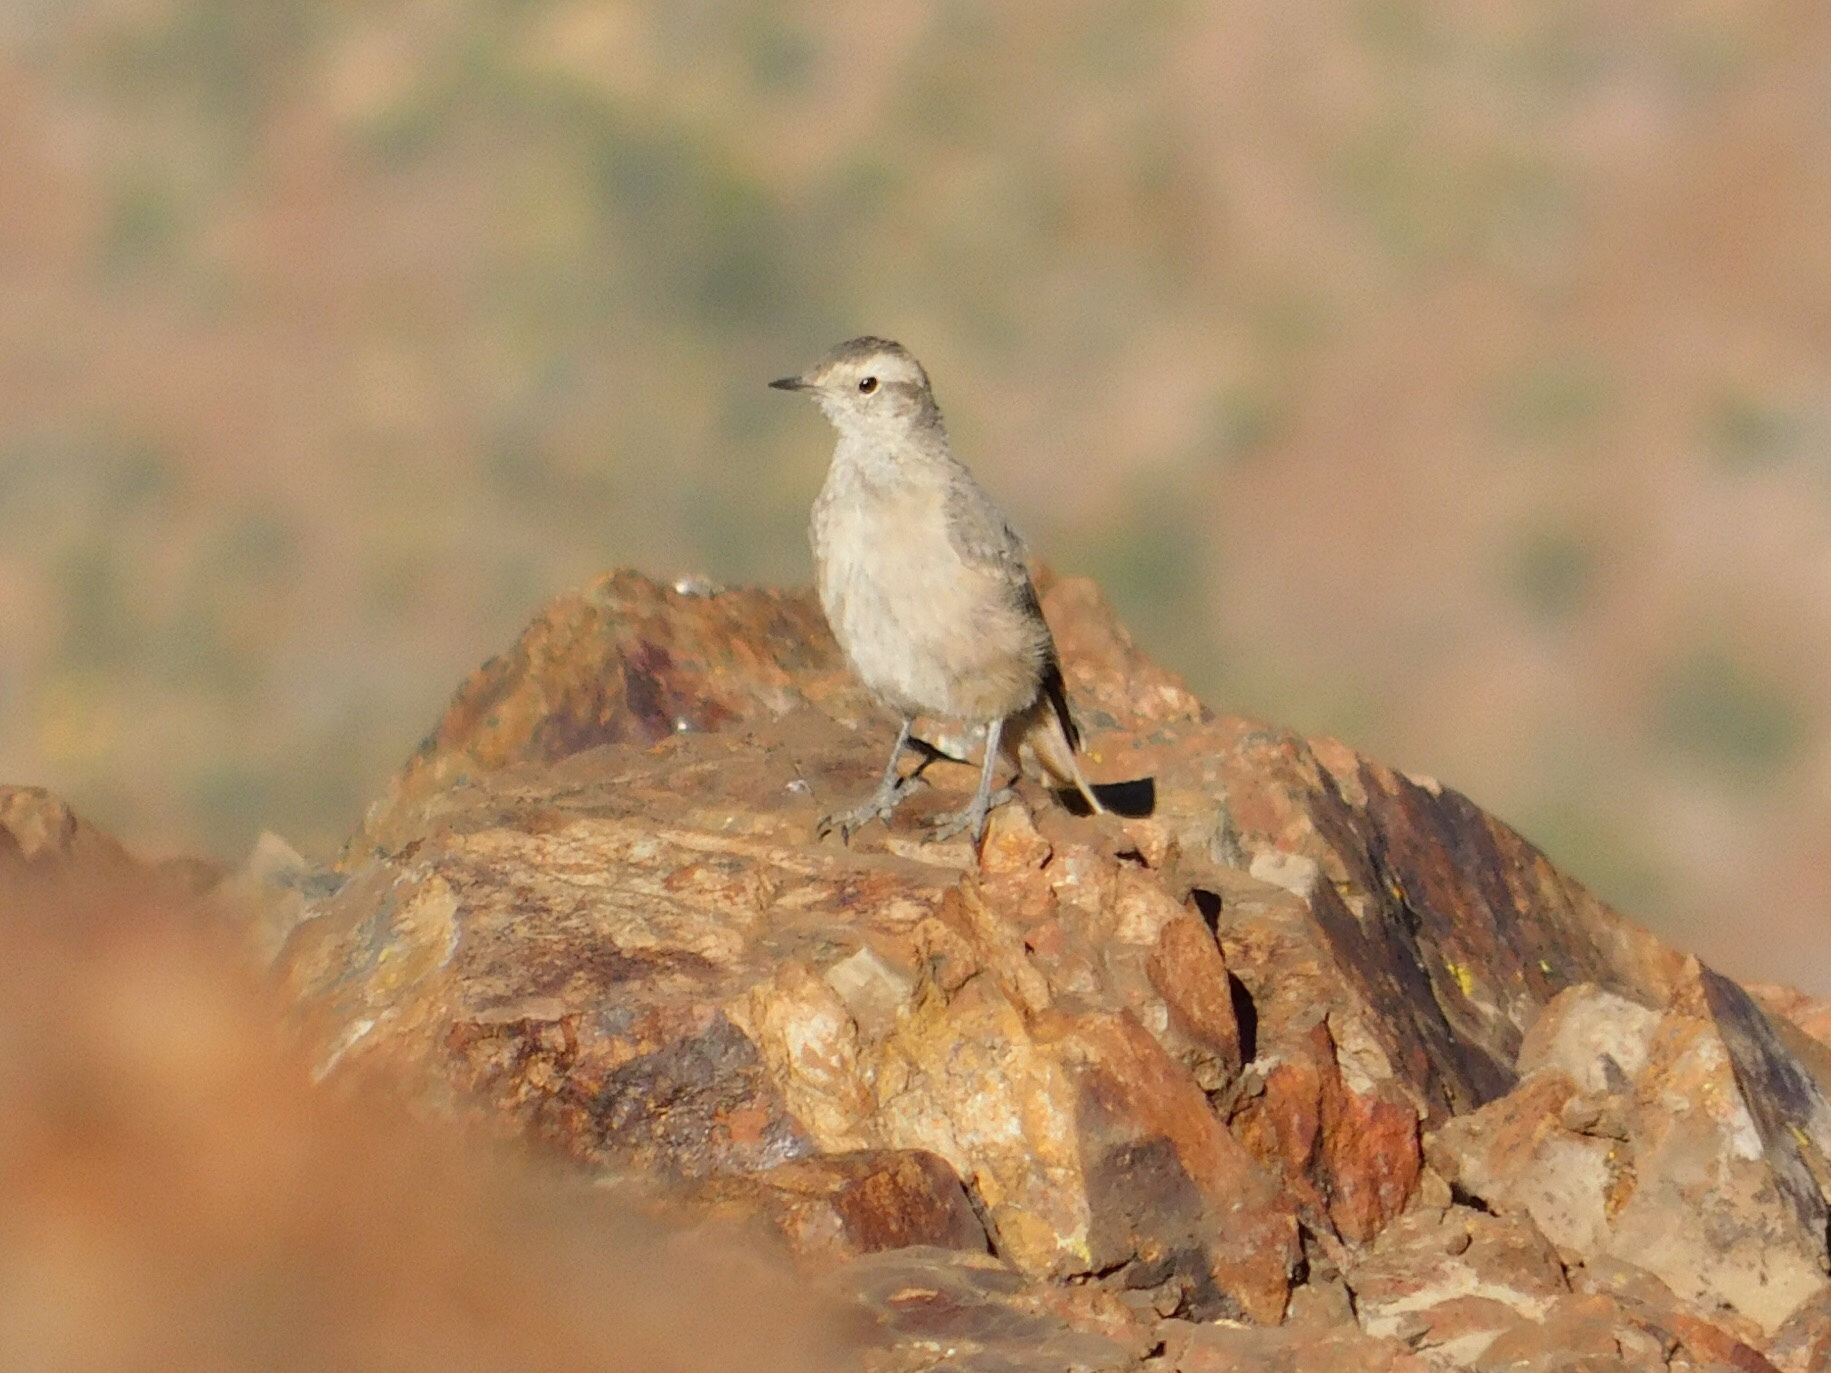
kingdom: Animalia
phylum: Chordata
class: Aves
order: Passeriformes
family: Furnariidae
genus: Geositta
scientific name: Geositta rufipennis
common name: Rufous-banded miner
